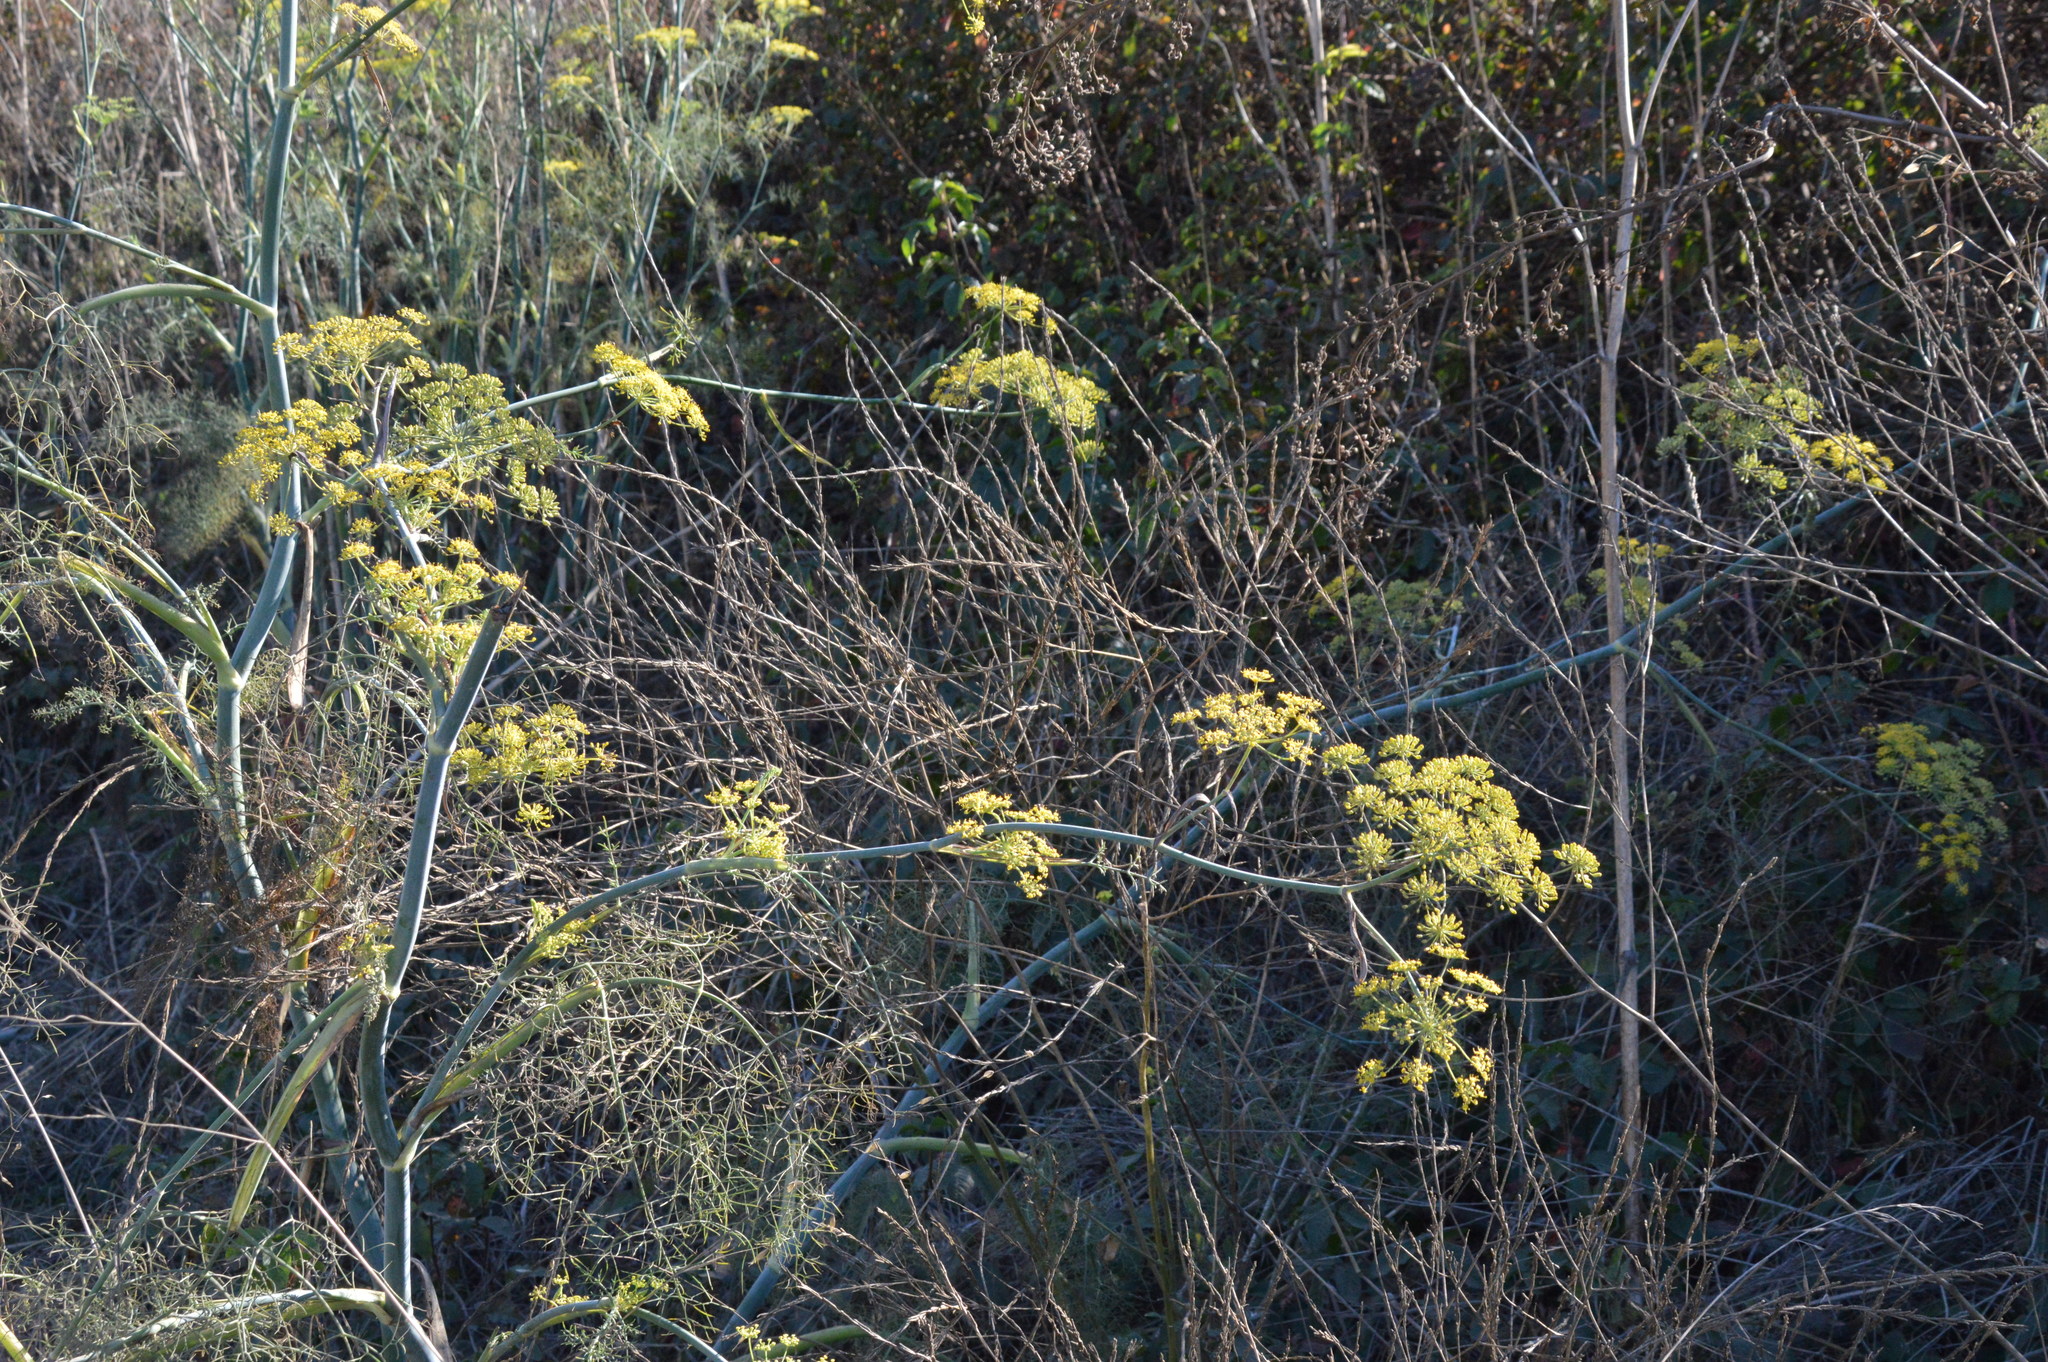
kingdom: Plantae
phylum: Tracheophyta
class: Magnoliopsida
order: Apiales
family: Apiaceae
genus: Foeniculum
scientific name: Foeniculum vulgare
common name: Fennel
